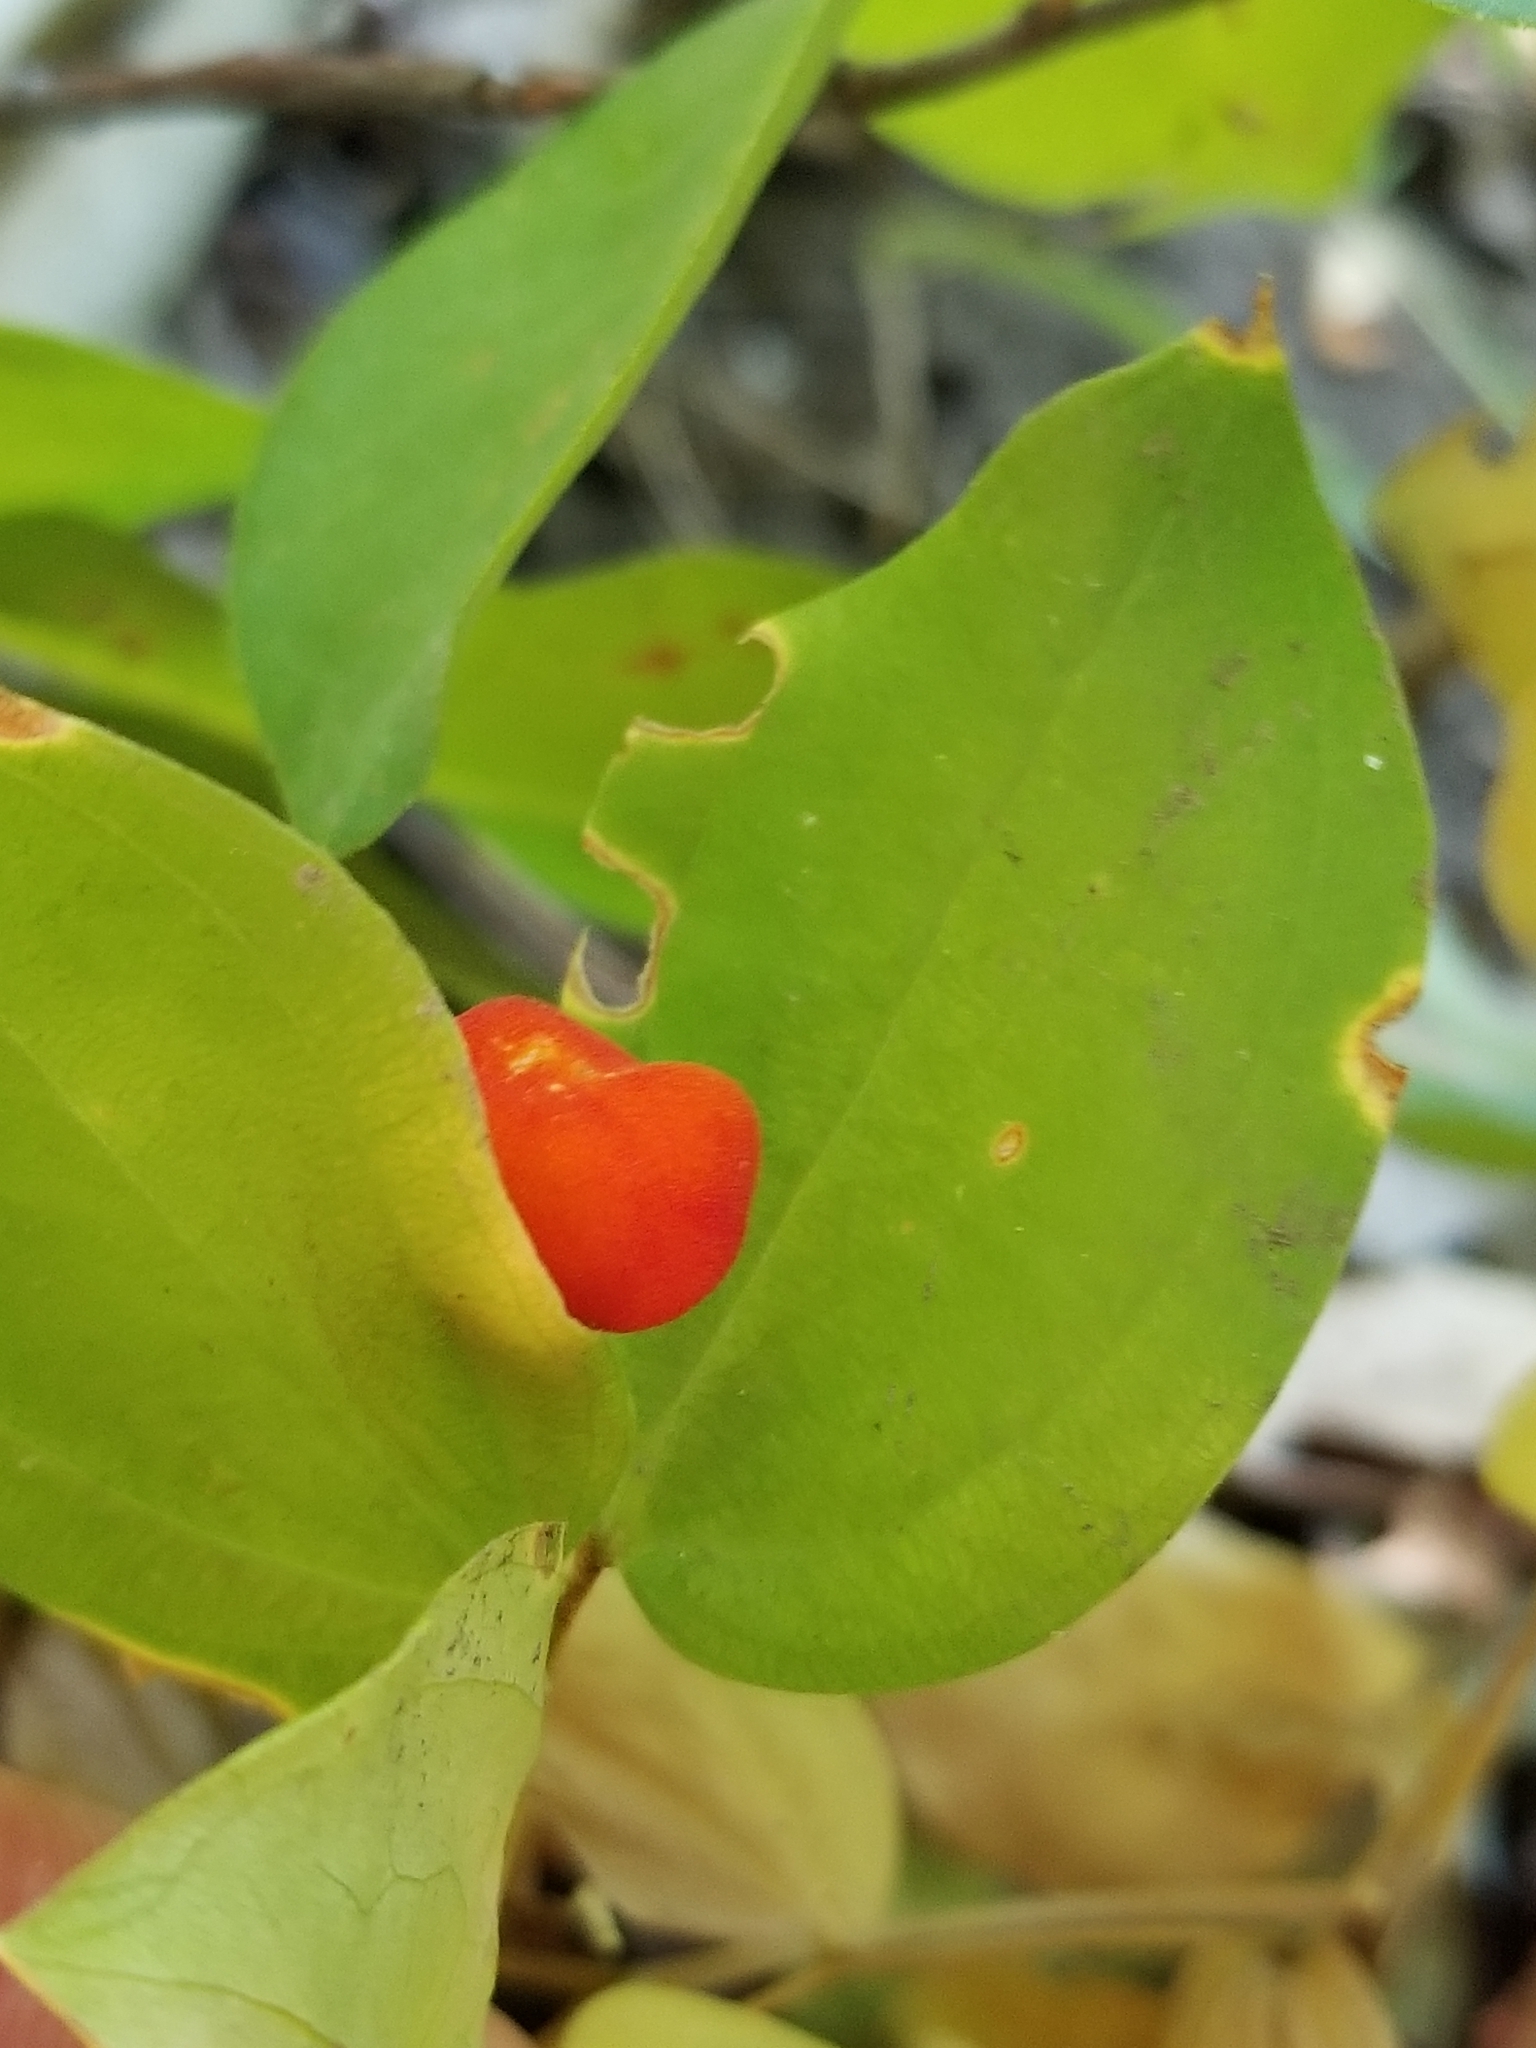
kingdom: Plantae
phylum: Tracheophyta
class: Liliopsida
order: Liliales
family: Liliaceae
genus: Prosartes
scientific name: Prosartes trachycarpa
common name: Rough-fruit fairy-bells
